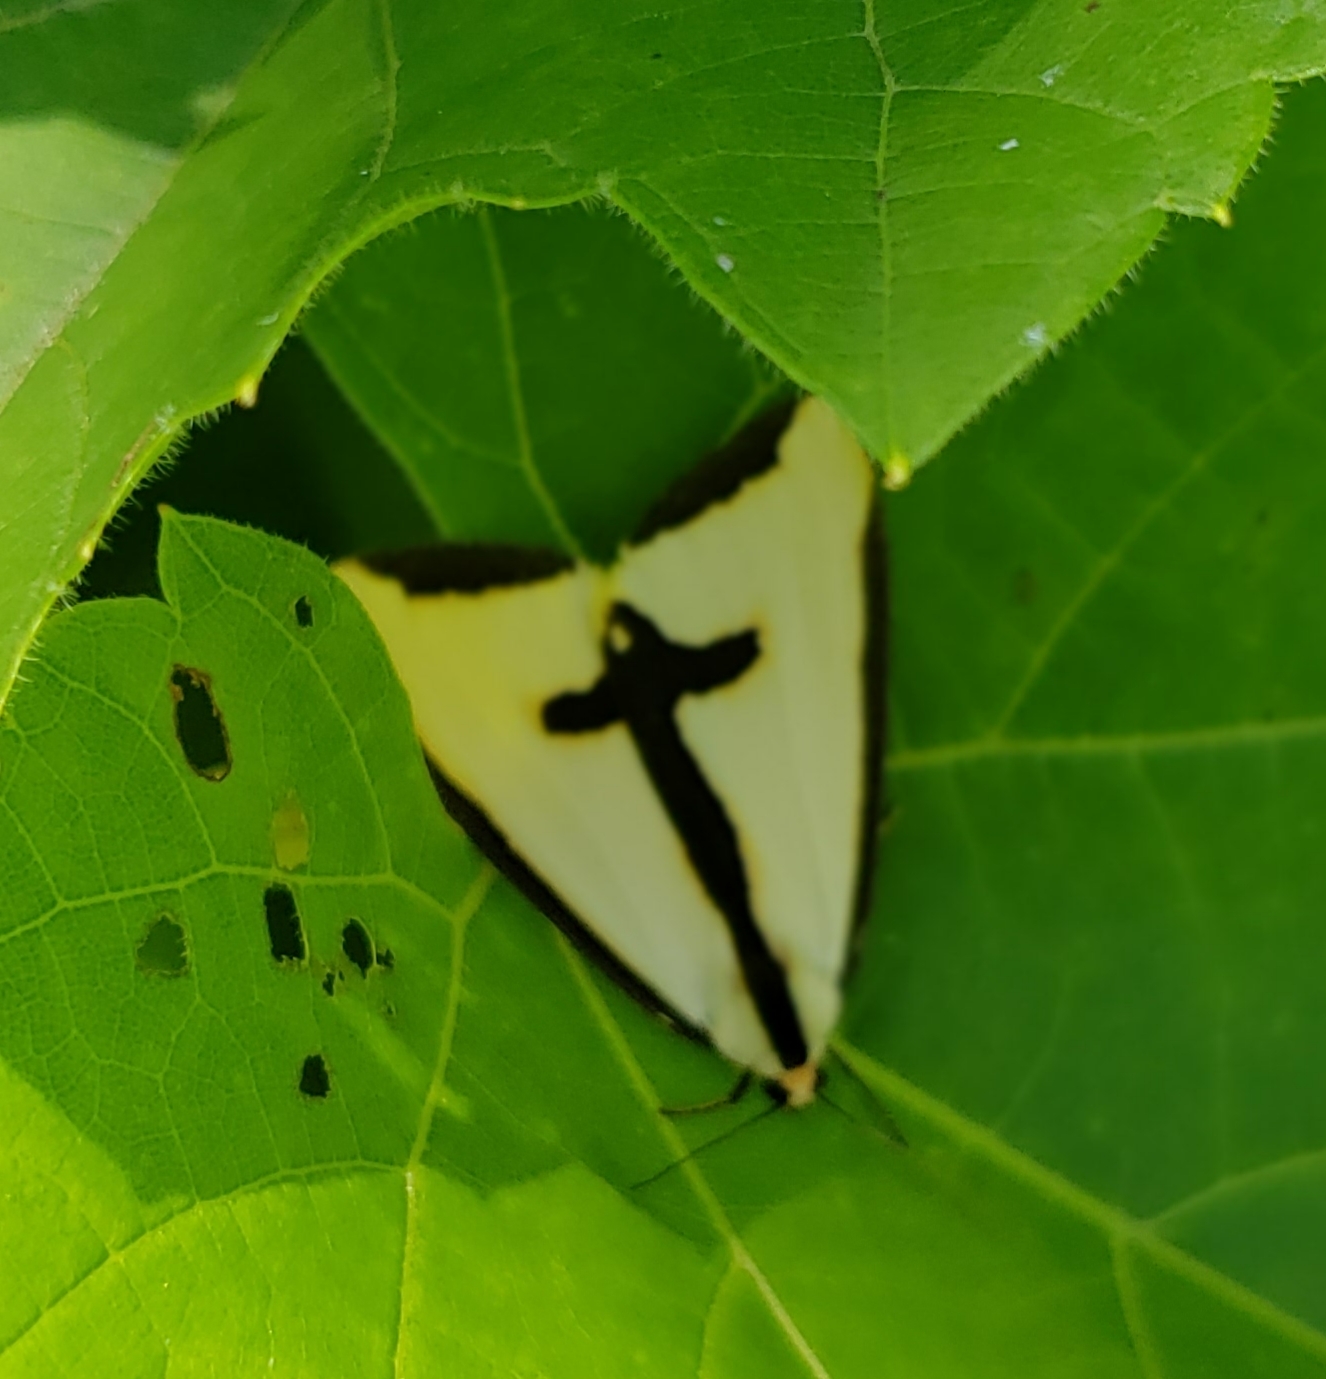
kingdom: Animalia
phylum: Arthropoda
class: Insecta
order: Lepidoptera
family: Erebidae
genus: Haploa
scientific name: Haploa clymene
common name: Clymene moth
